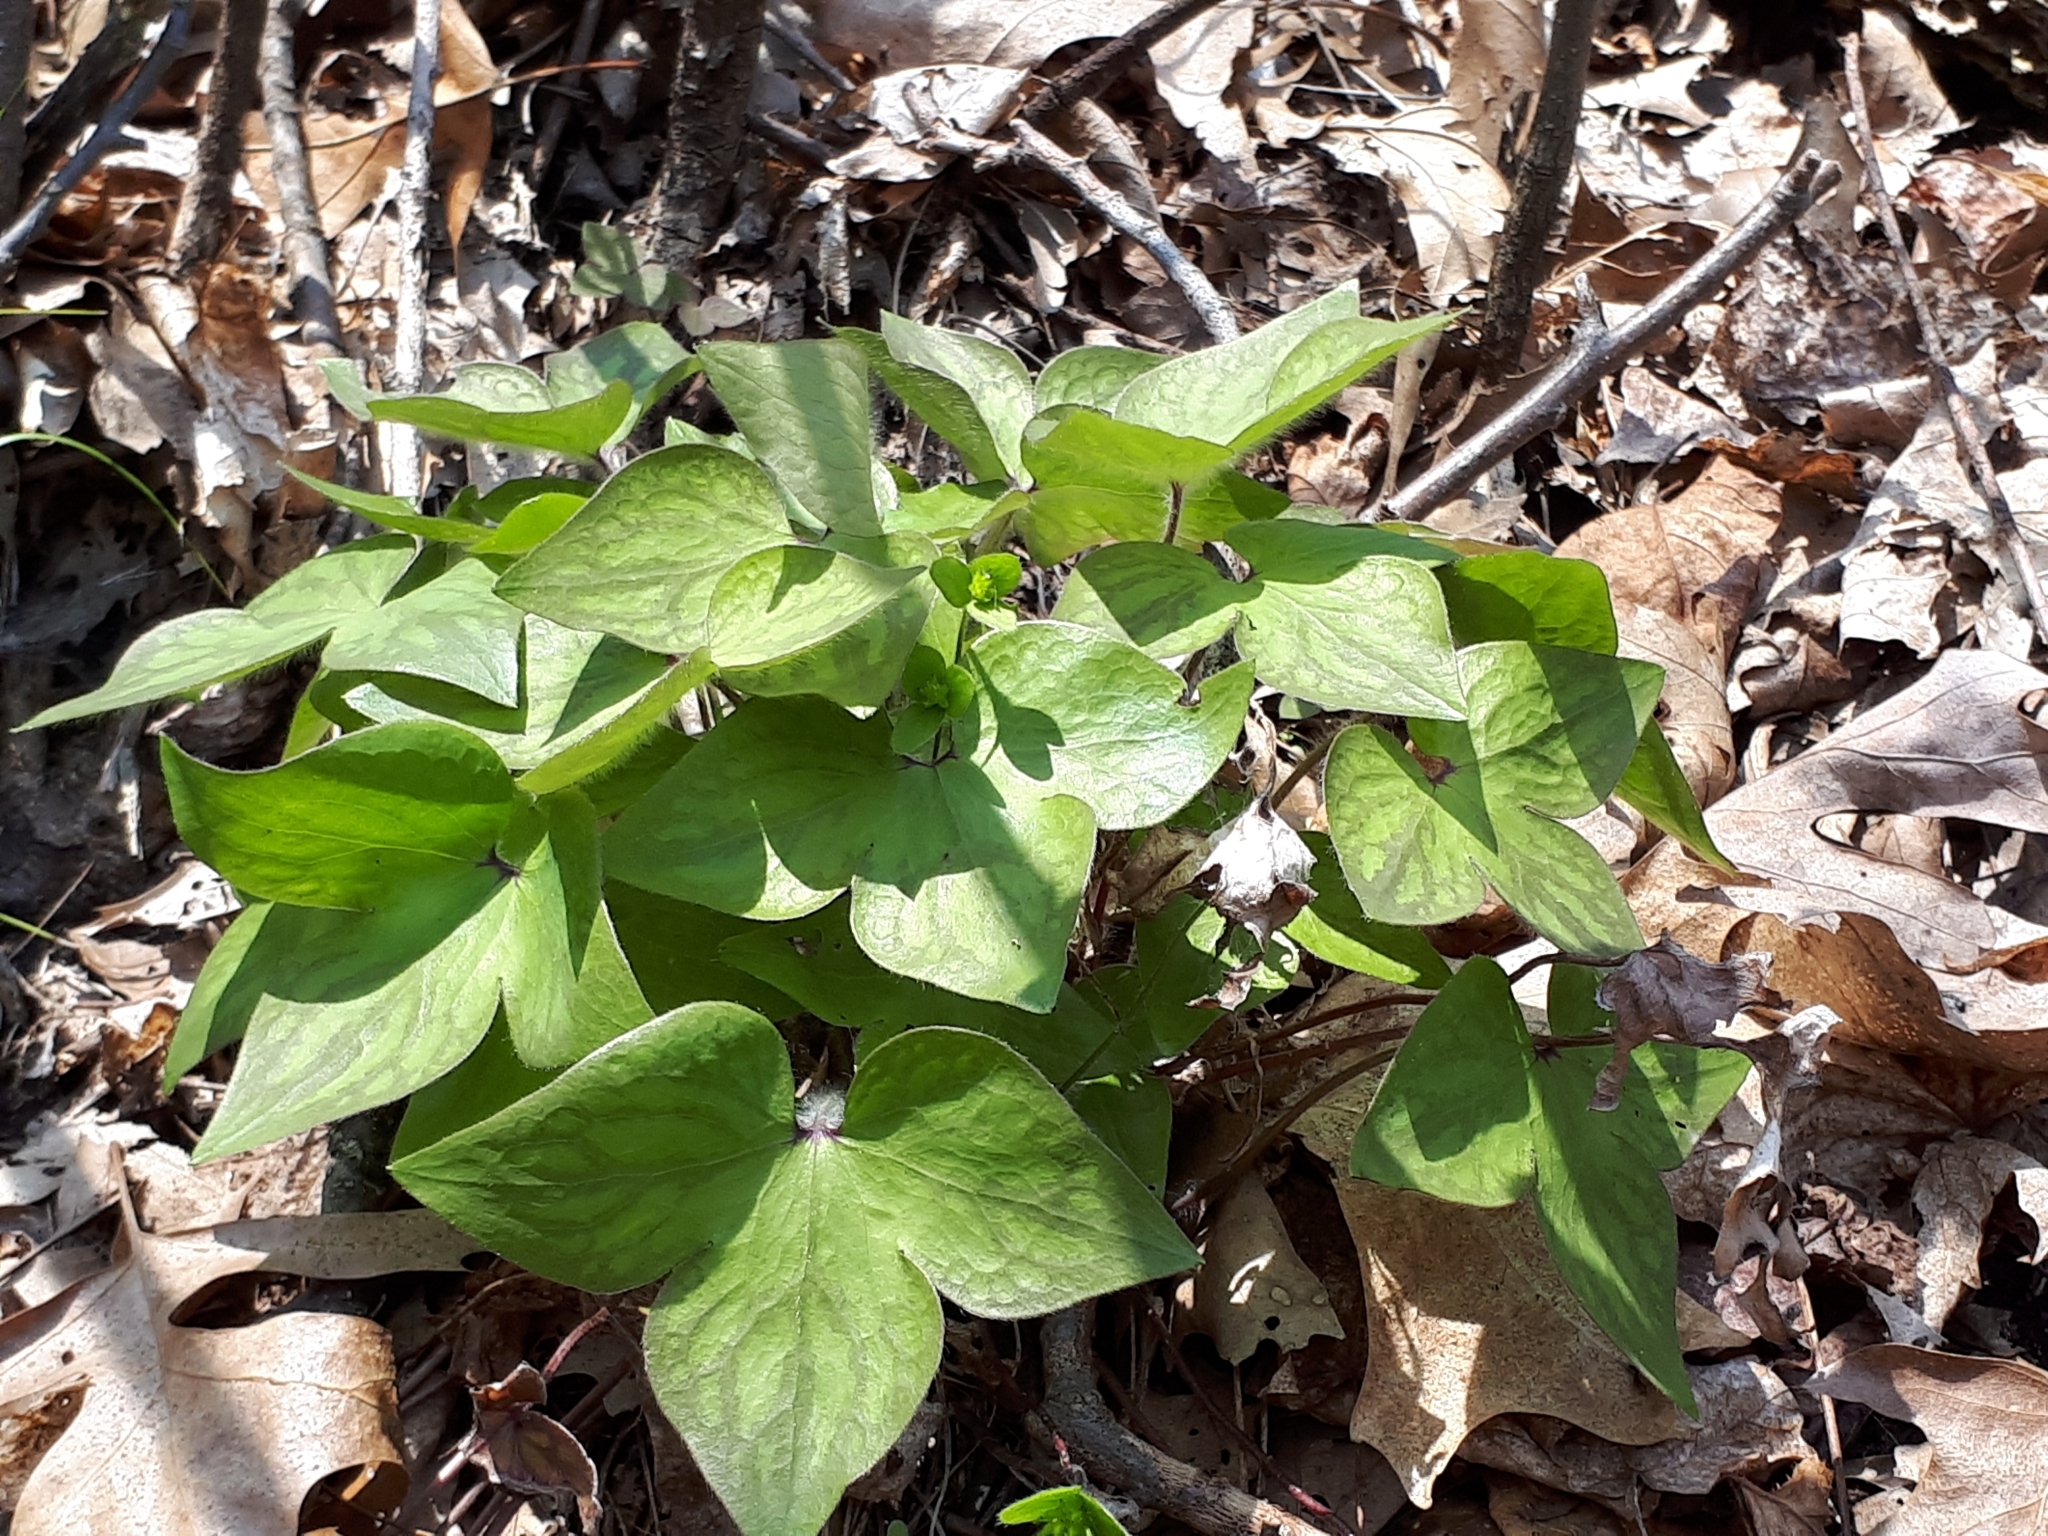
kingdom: Plantae
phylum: Tracheophyta
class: Magnoliopsida
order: Ranunculales
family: Ranunculaceae
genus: Hepatica
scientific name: Hepatica acutiloba
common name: Sharp-lobed hepatica
